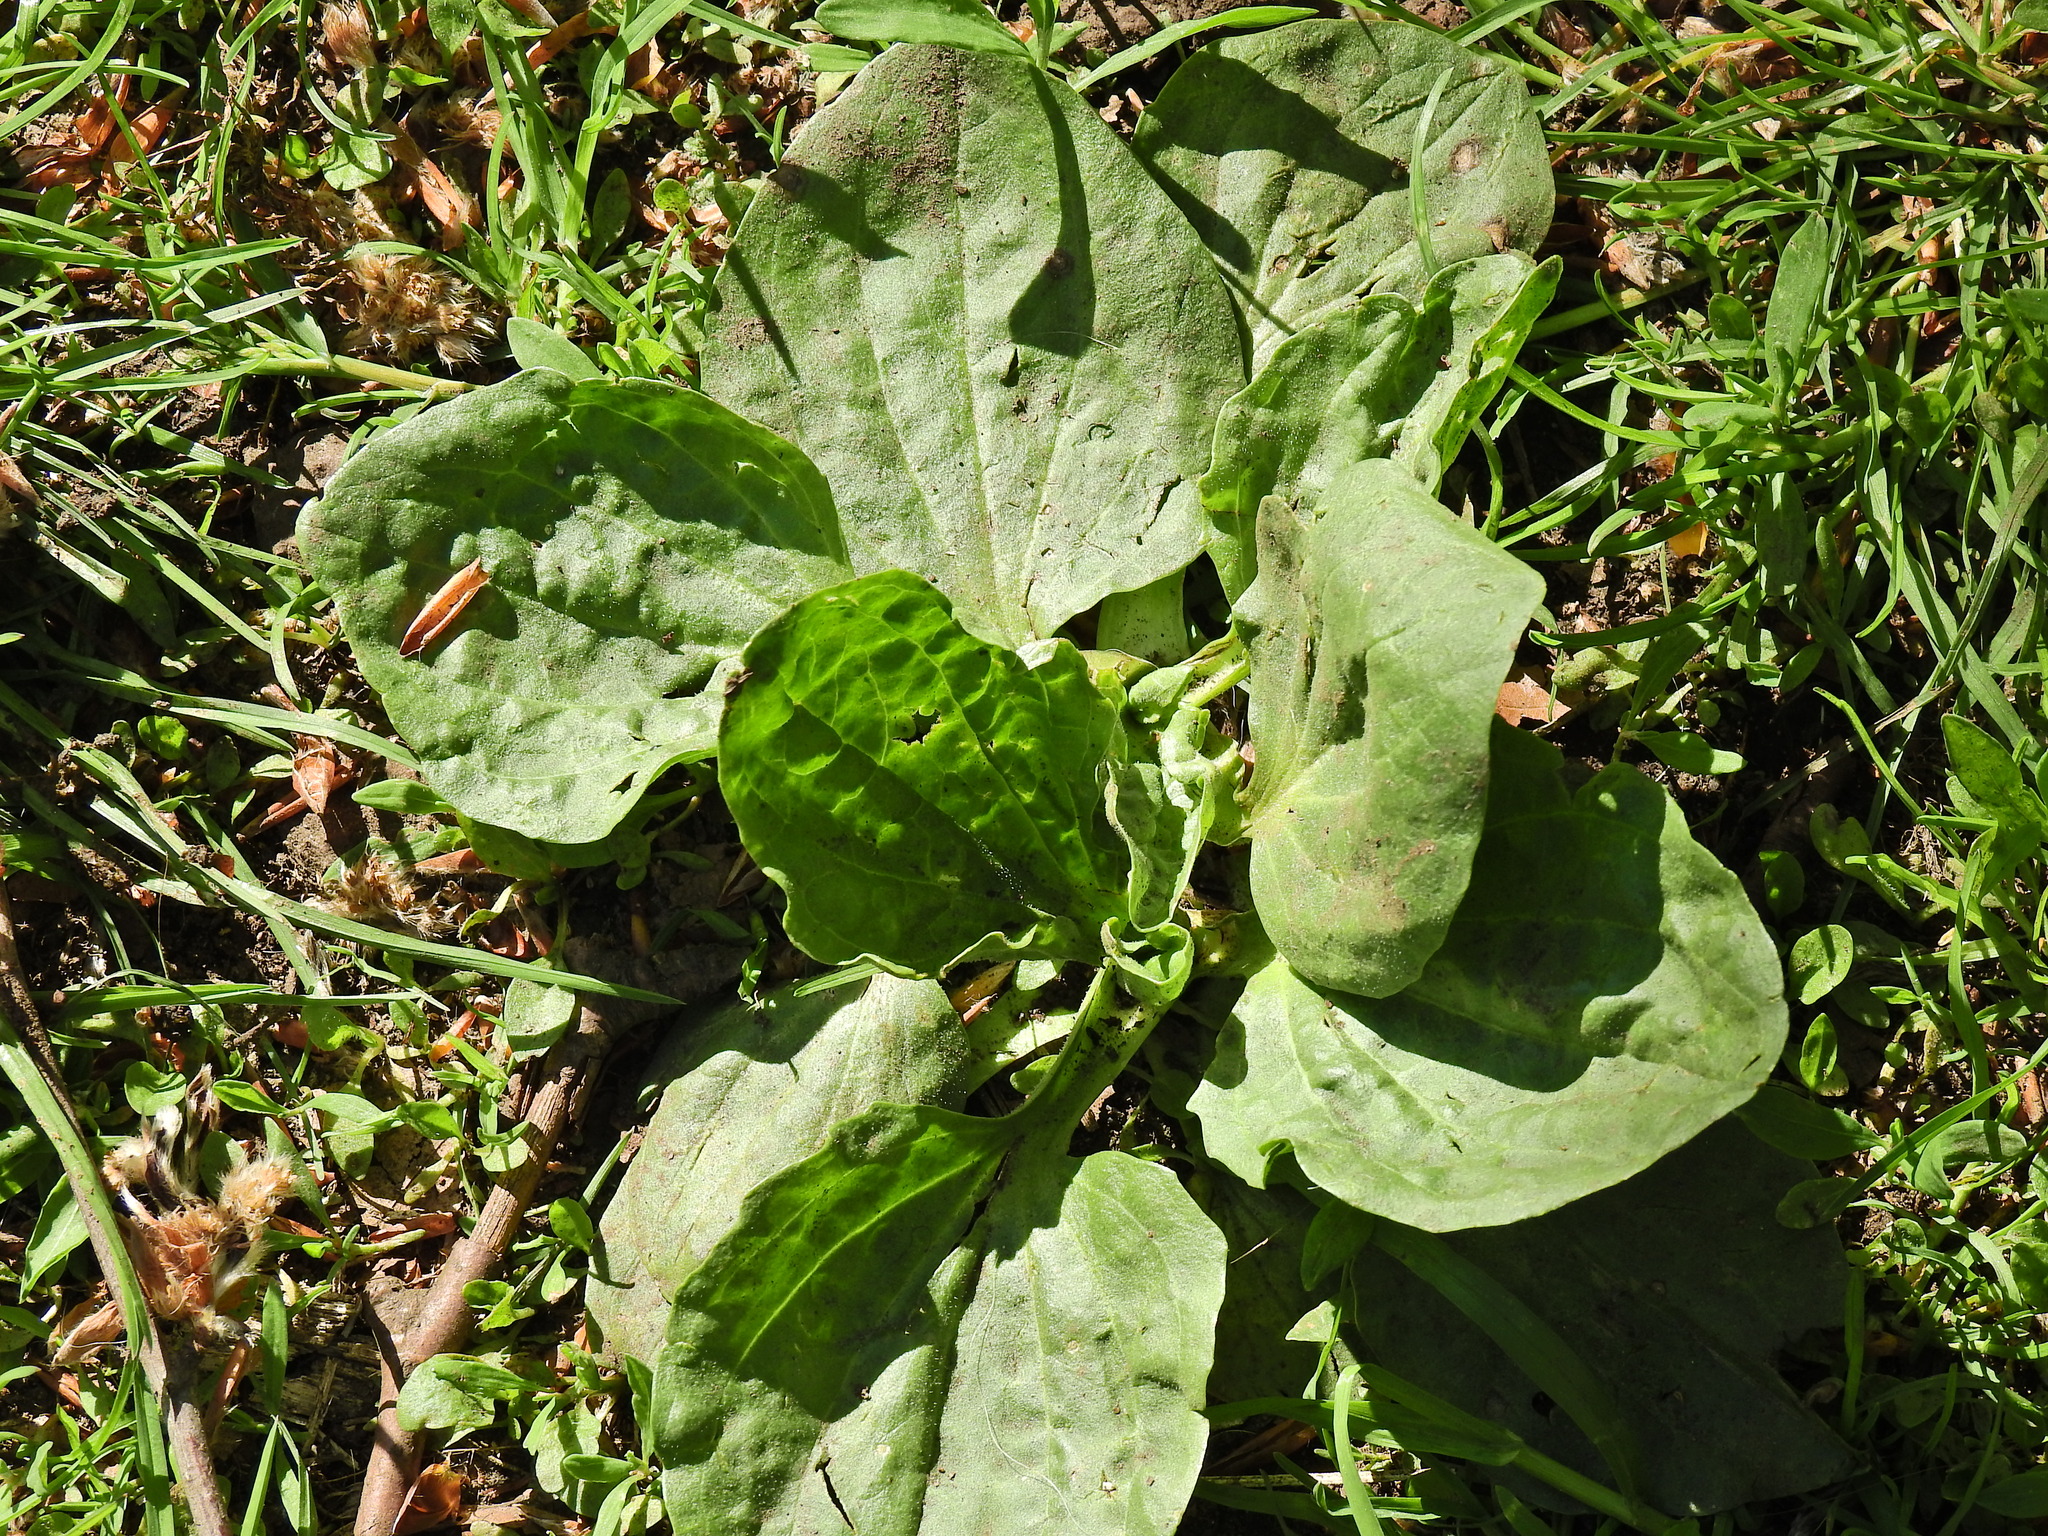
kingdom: Plantae
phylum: Tracheophyta
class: Magnoliopsida
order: Lamiales
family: Plantaginaceae
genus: Plantago
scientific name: Plantago major
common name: Common plantain
